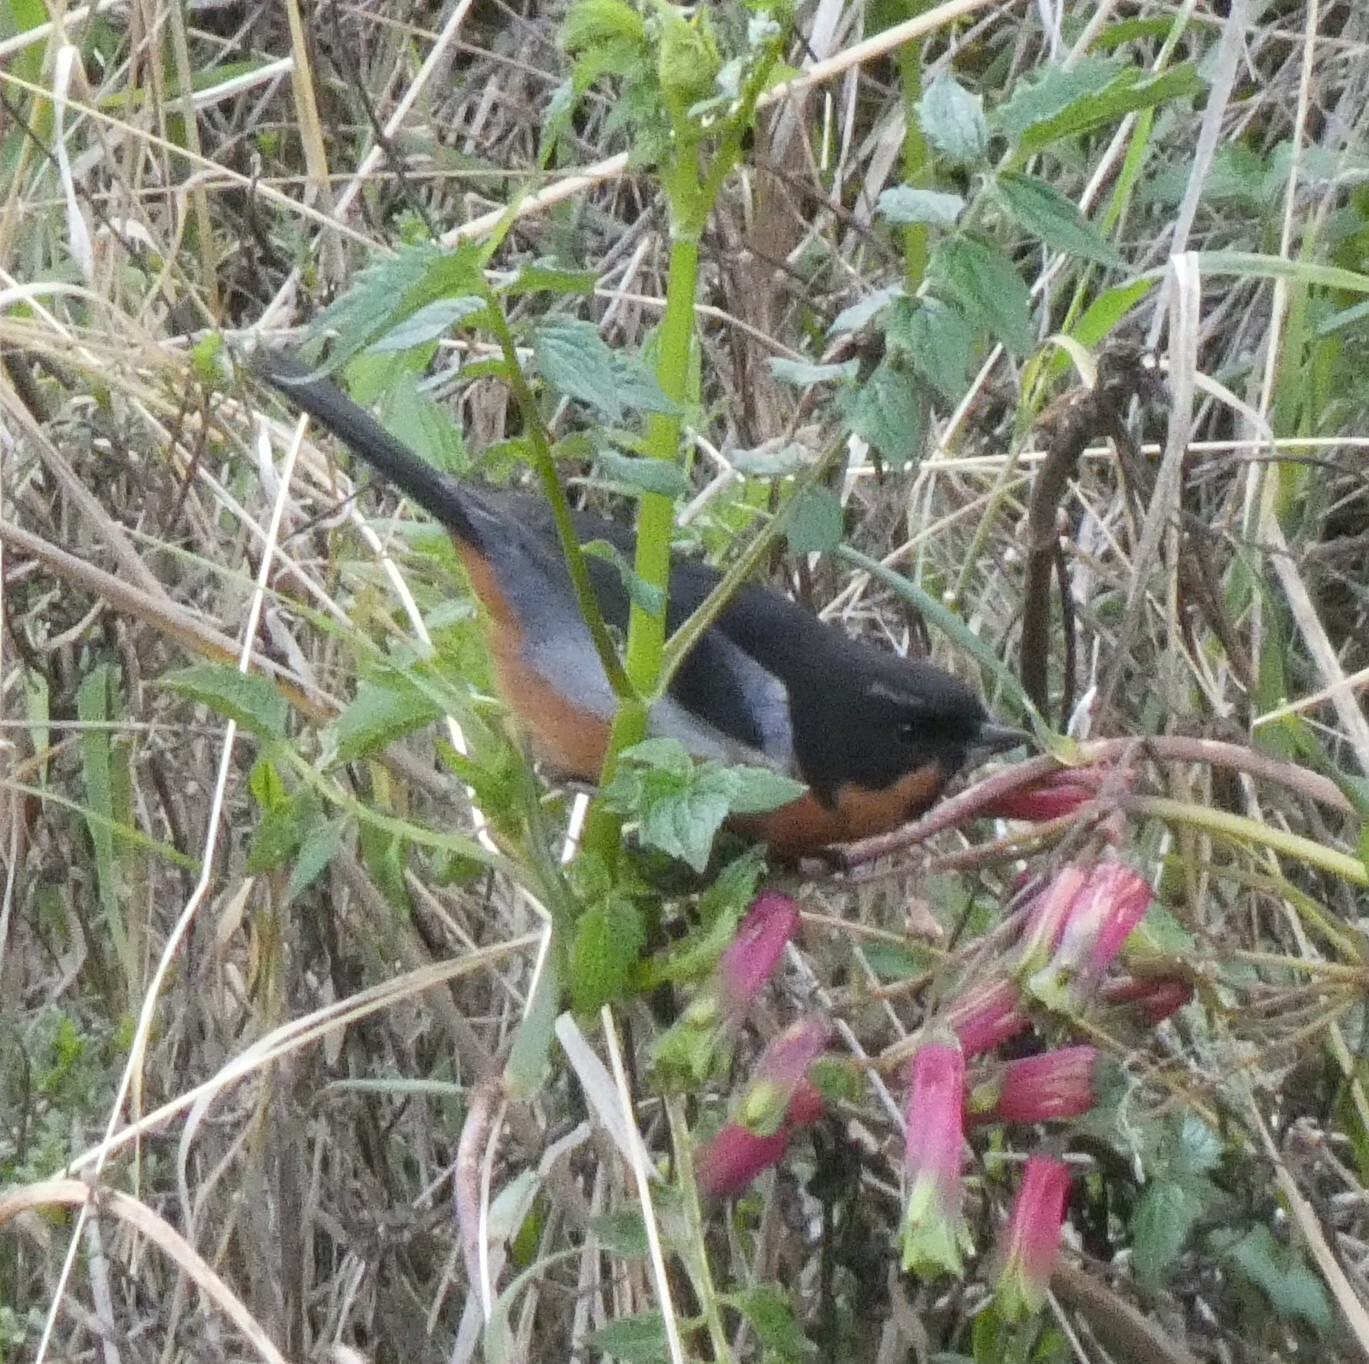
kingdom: Animalia
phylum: Chordata
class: Aves
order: Passeriformes
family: Thraupidae
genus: Diglossa
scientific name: Diglossa brunneiventris
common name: Black-throated flowerpiercer
